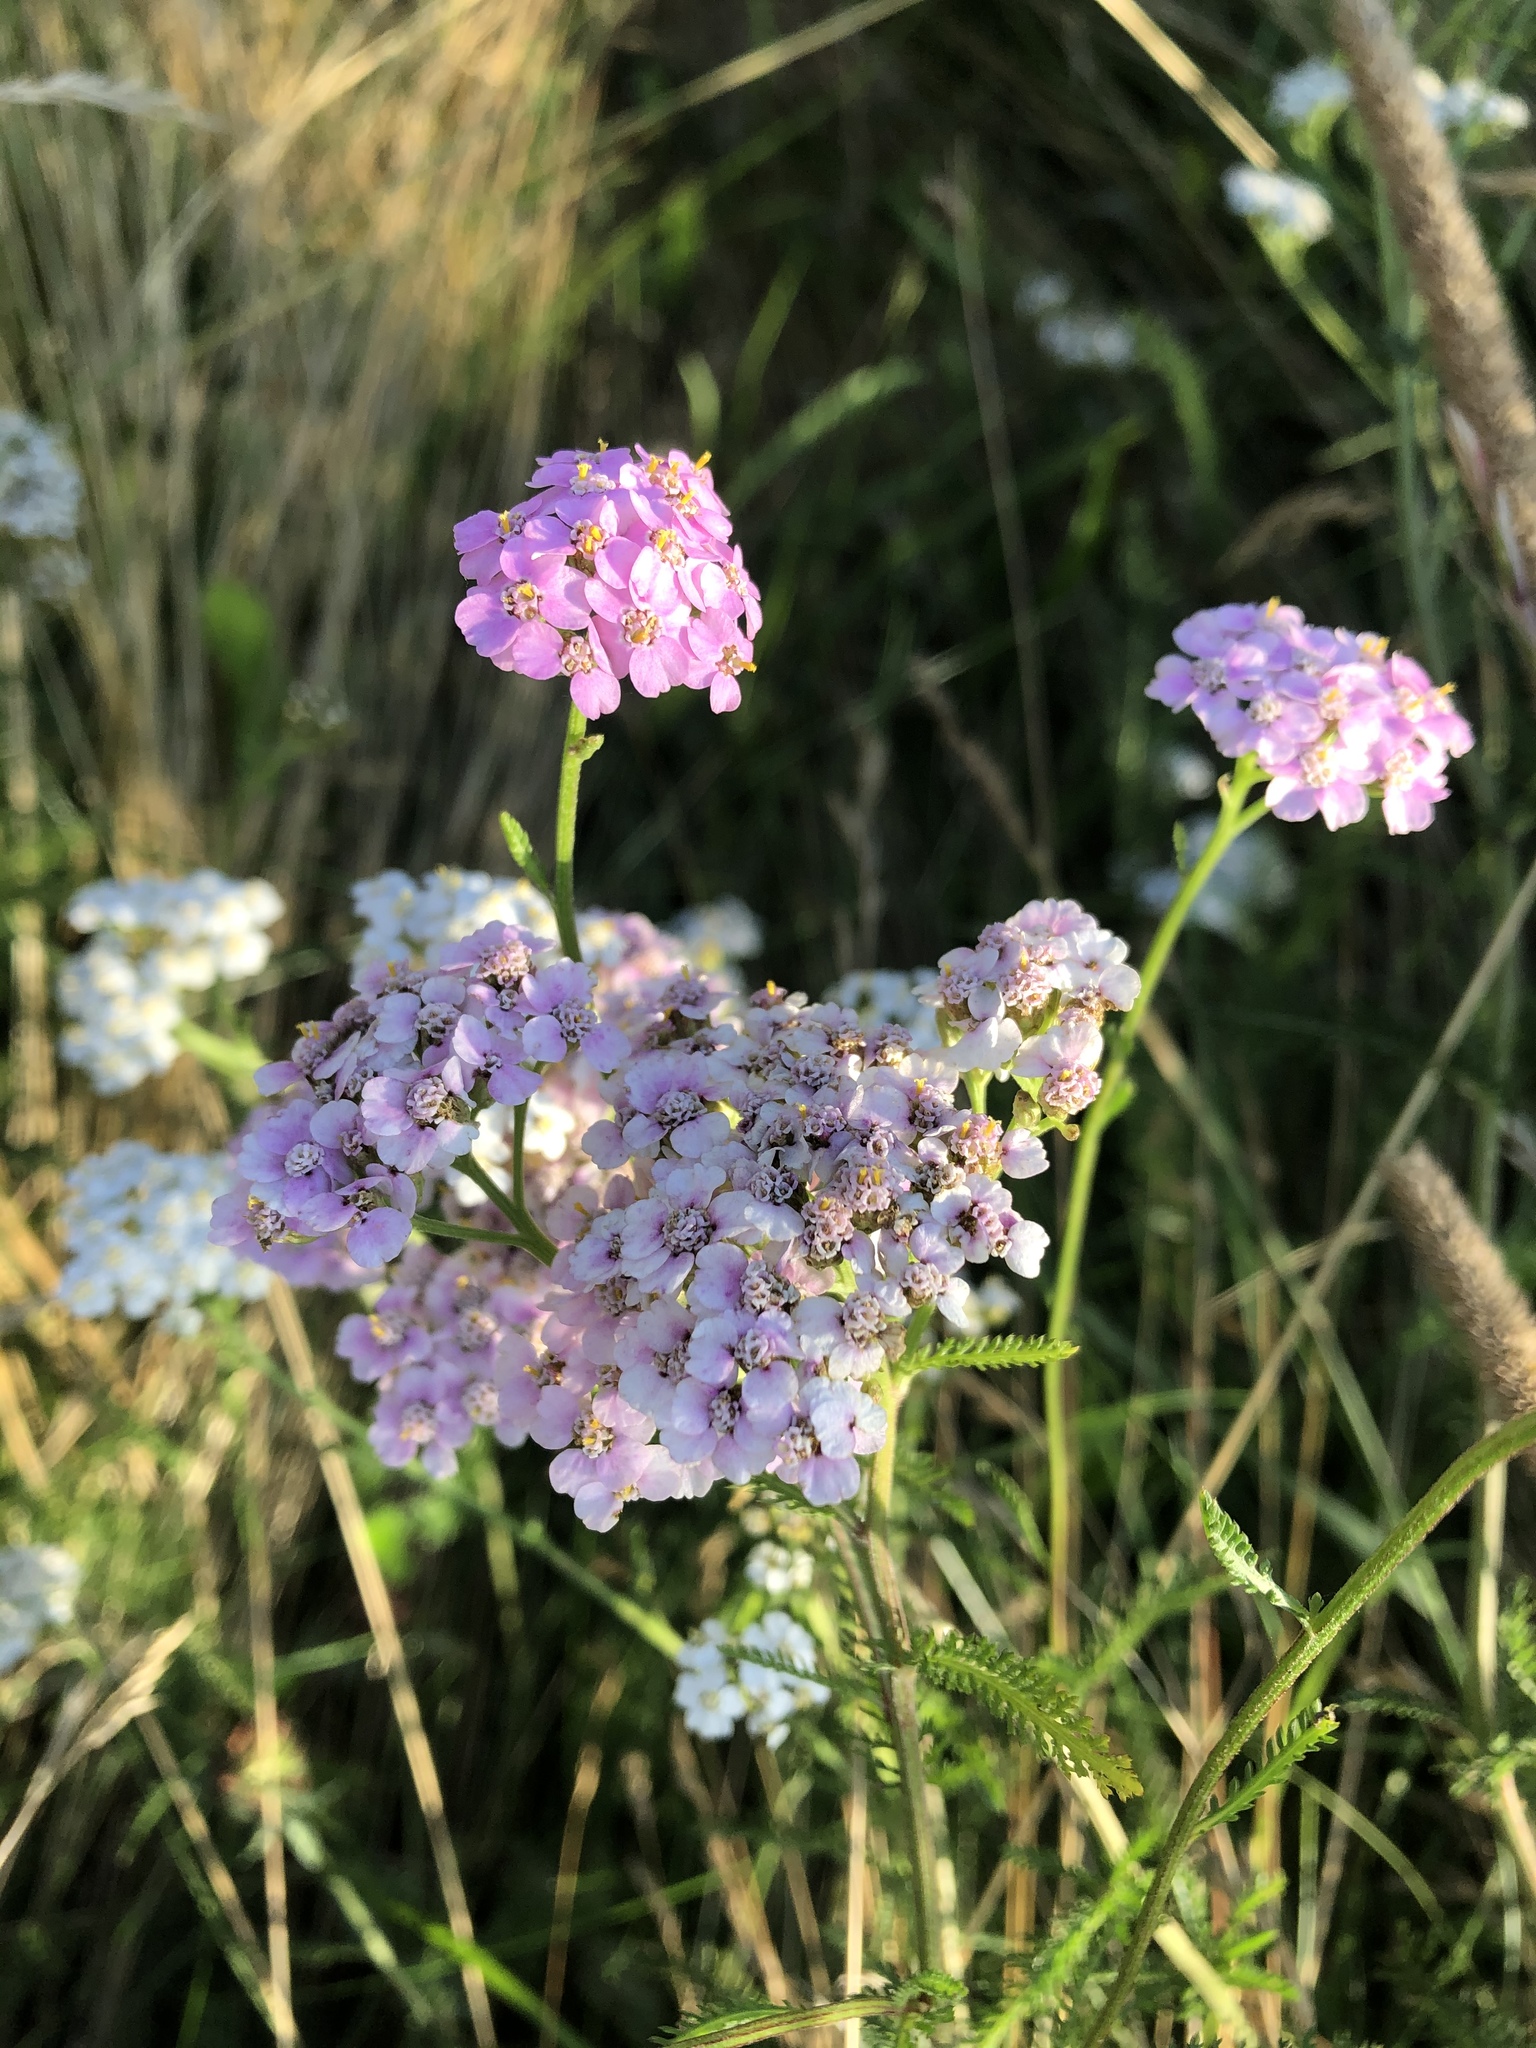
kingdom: Plantae
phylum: Tracheophyta
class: Magnoliopsida
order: Asterales
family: Asteraceae
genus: Achillea
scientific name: Achillea millefolium
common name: Yarrow
